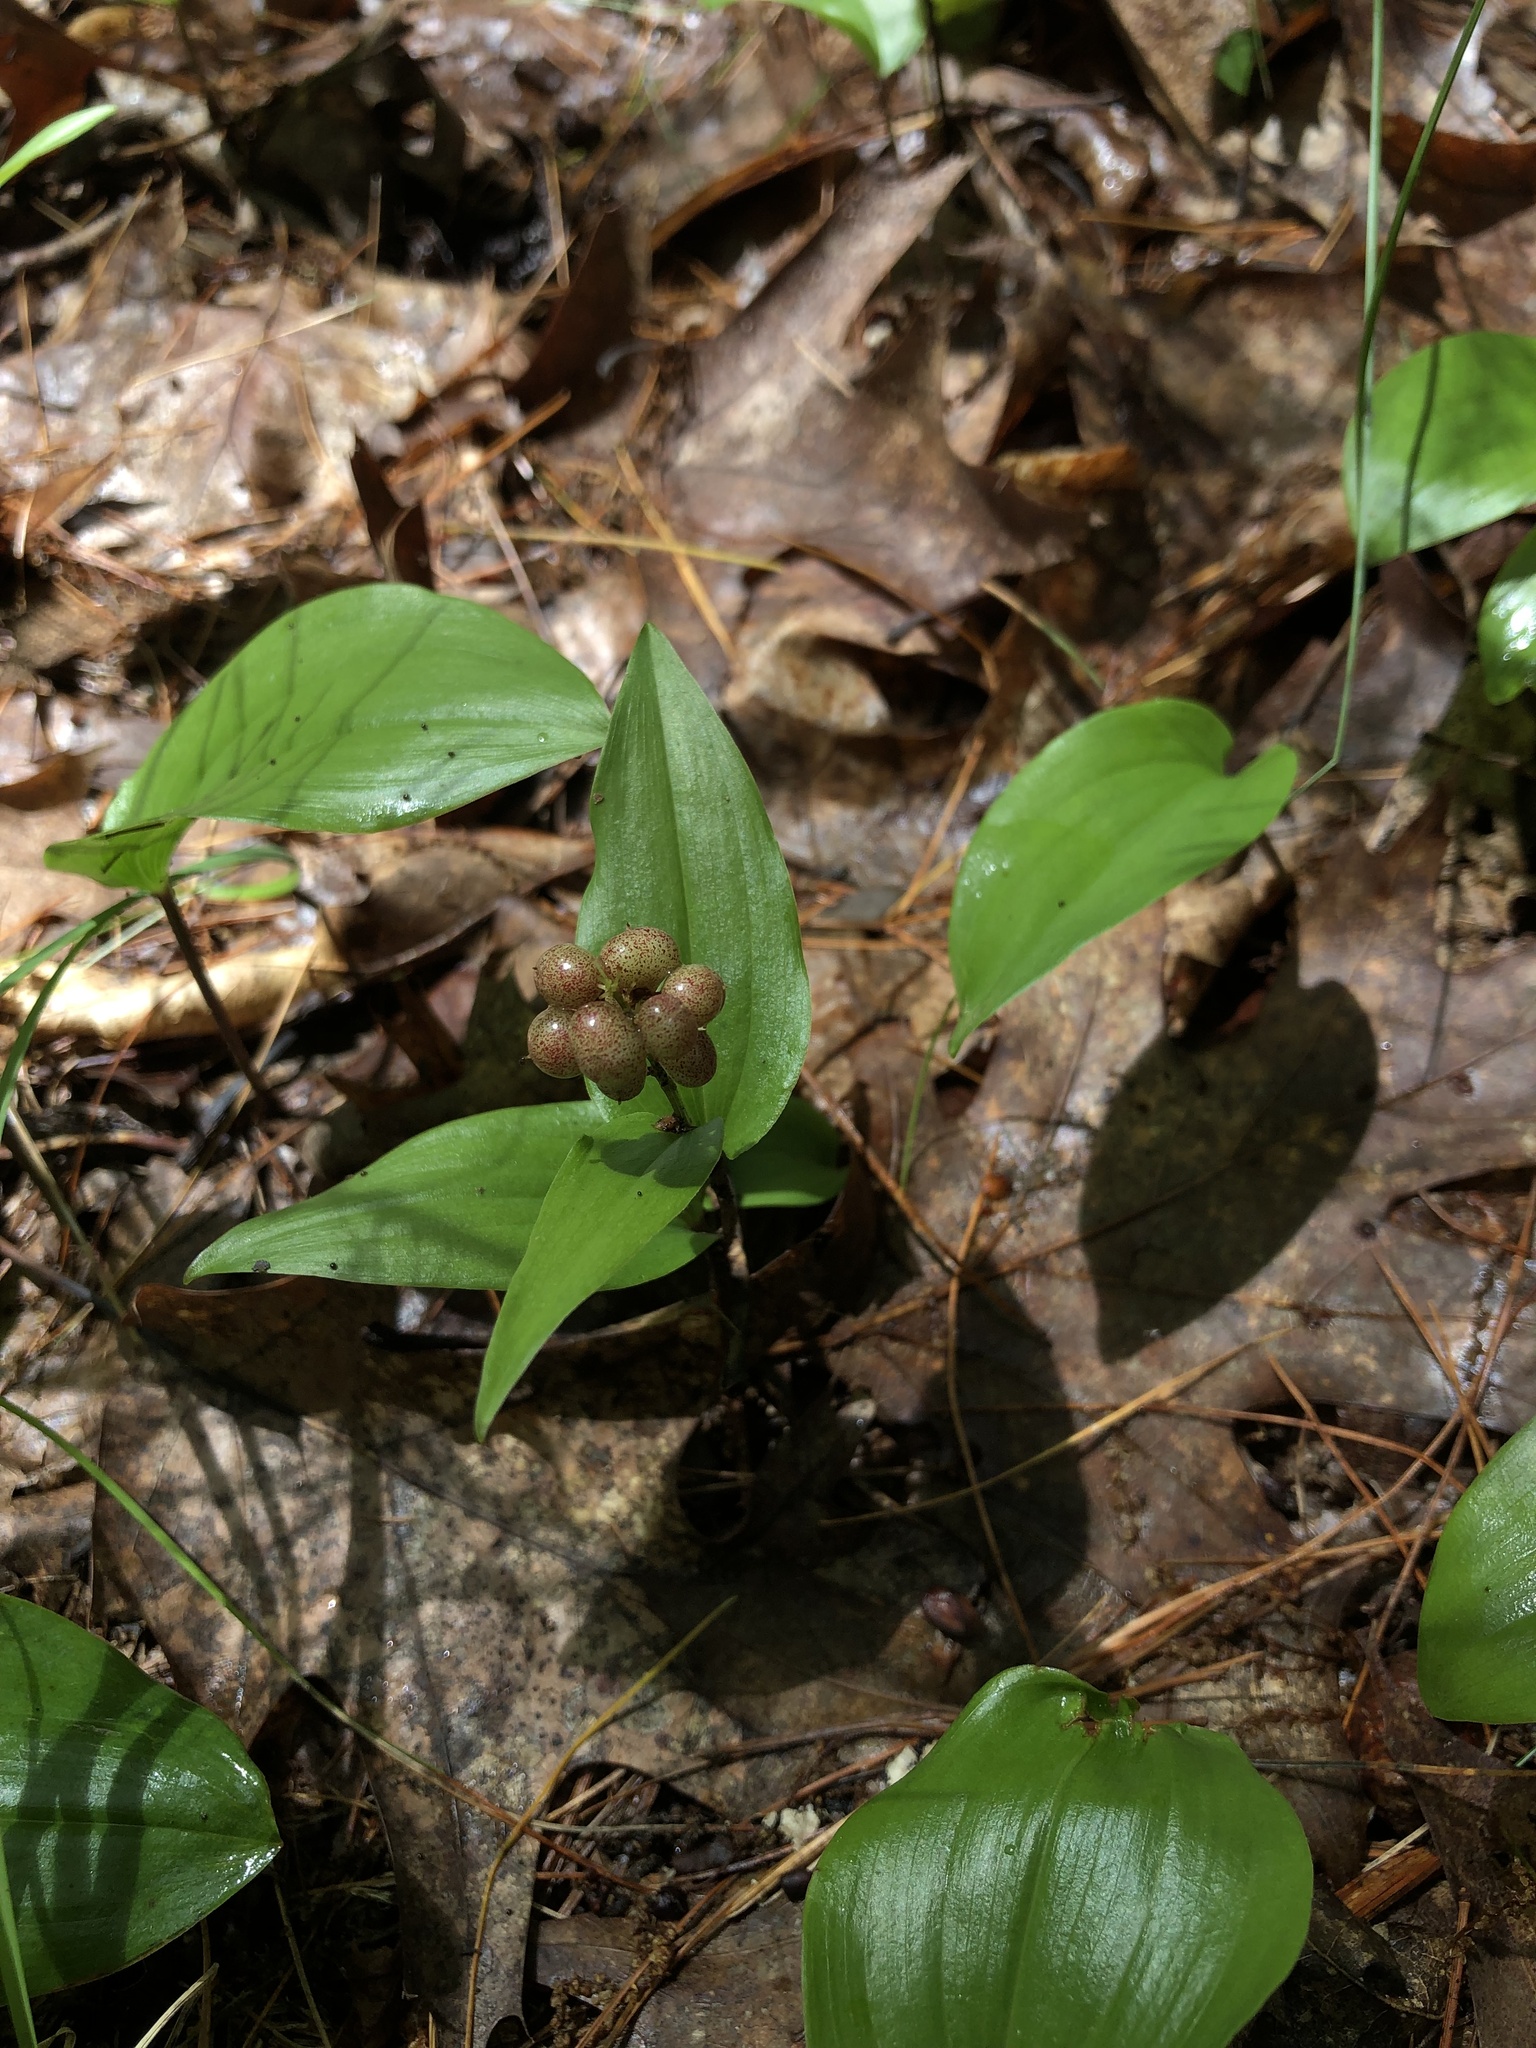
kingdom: Plantae
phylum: Tracheophyta
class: Liliopsida
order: Asparagales
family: Asparagaceae
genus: Maianthemum
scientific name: Maianthemum canadense
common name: False lily-of-the-valley
